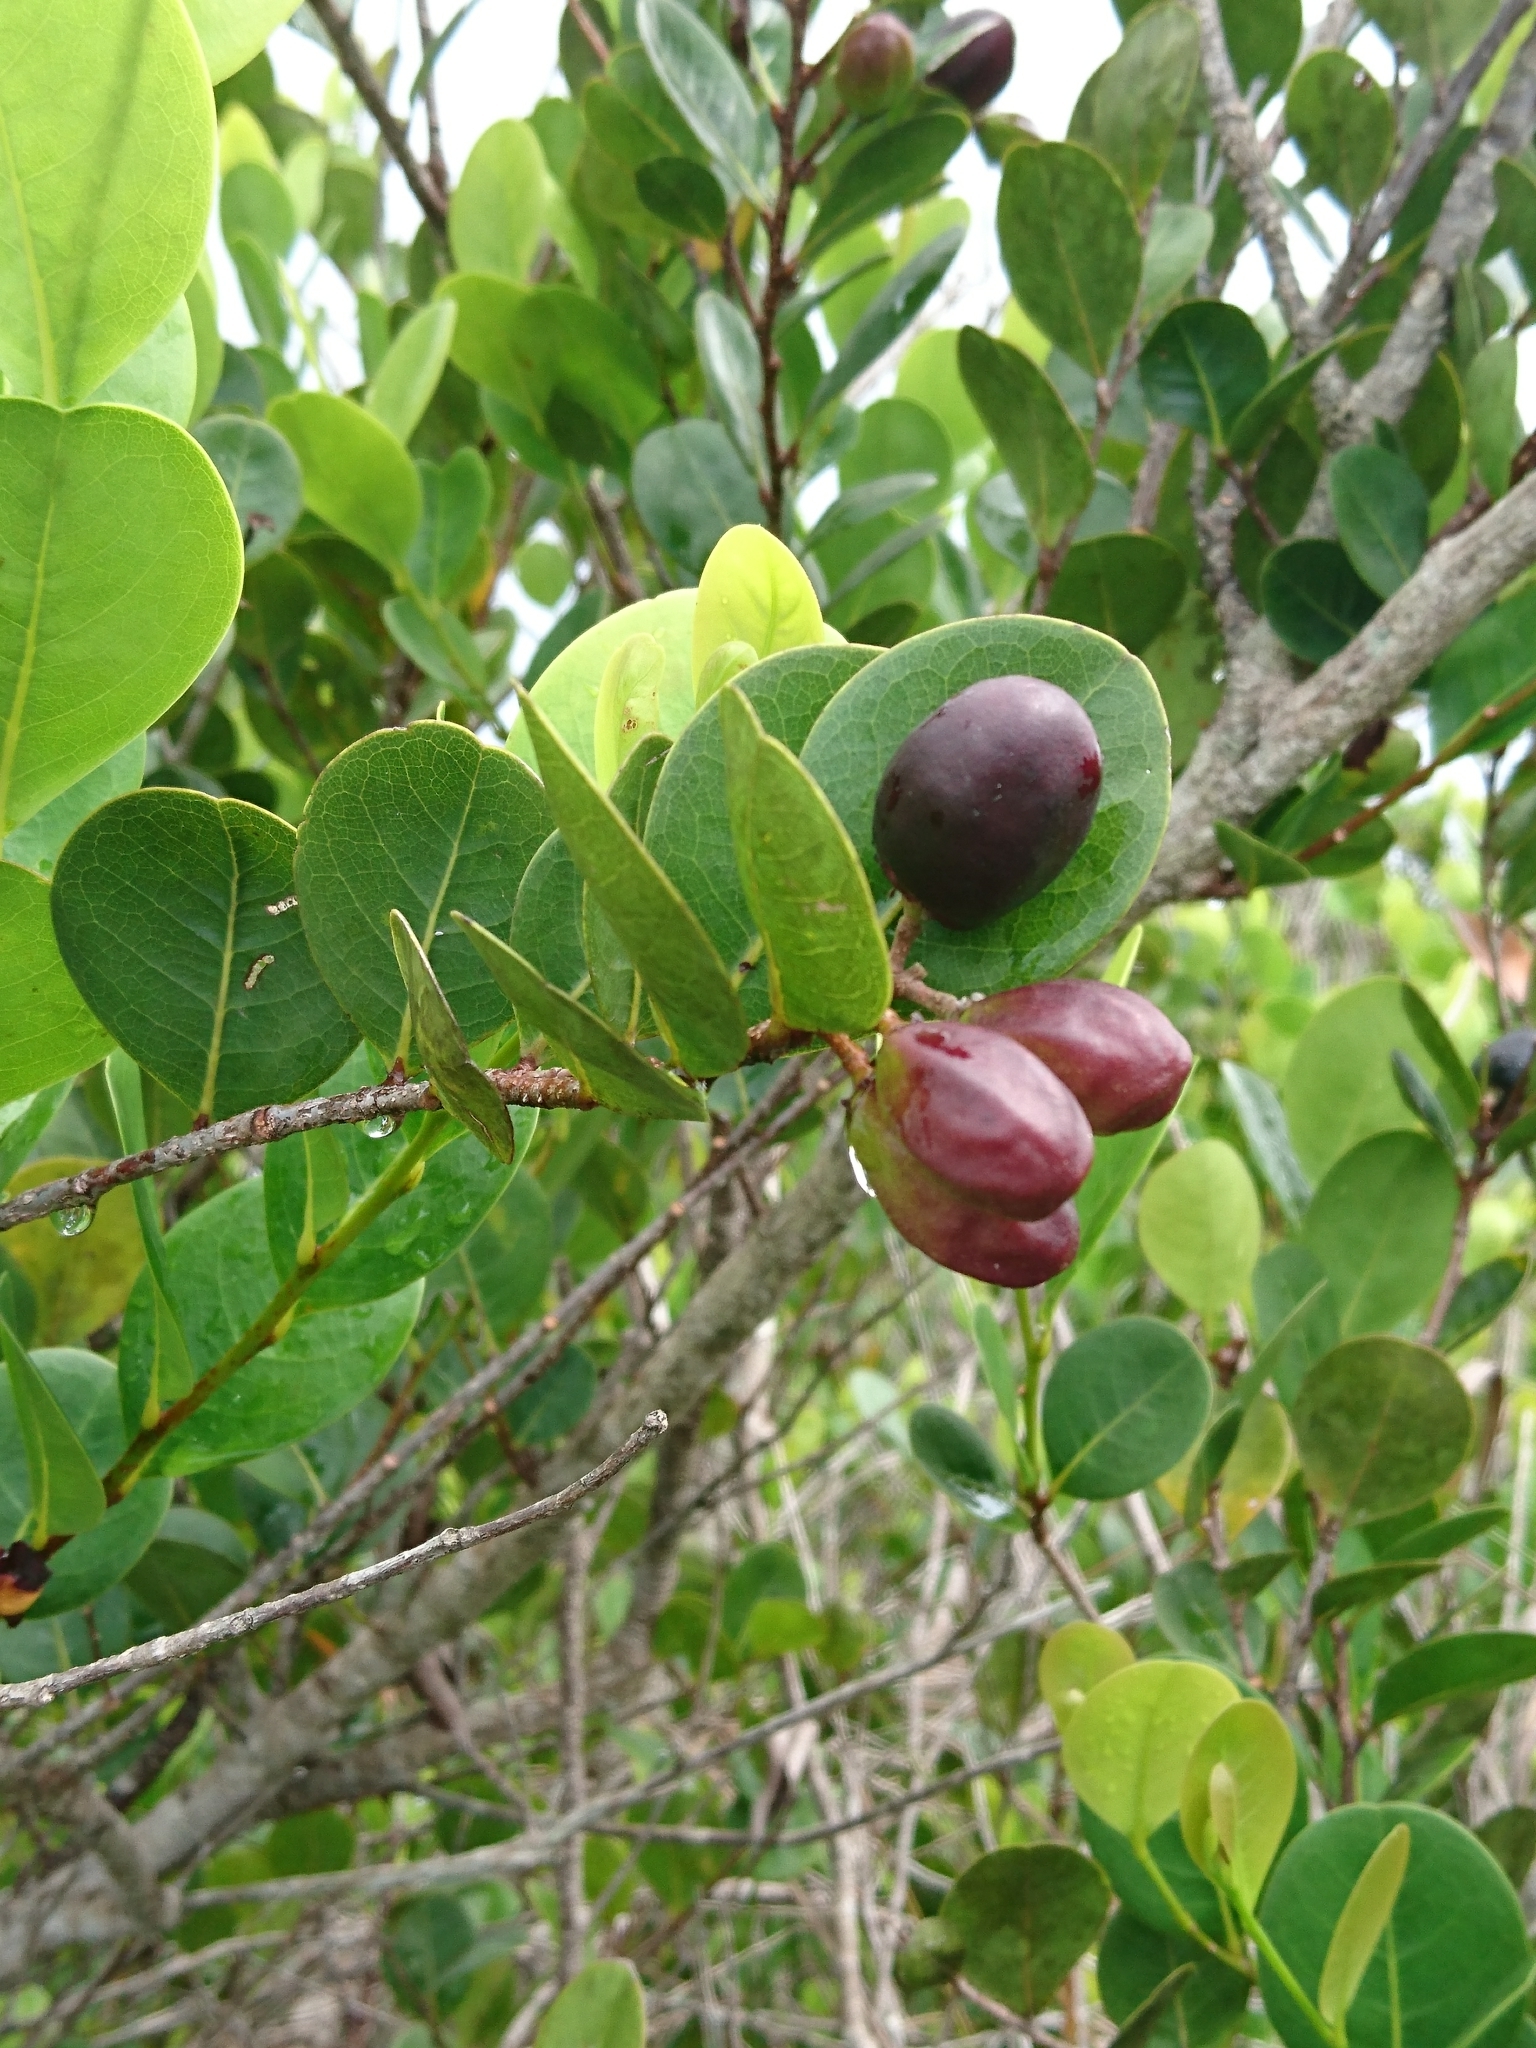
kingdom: Plantae
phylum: Tracheophyta
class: Magnoliopsida
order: Malpighiales
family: Chrysobalanaceae
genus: Chrysobalanus
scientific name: Chrysobalanus icaco
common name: Coco plum
